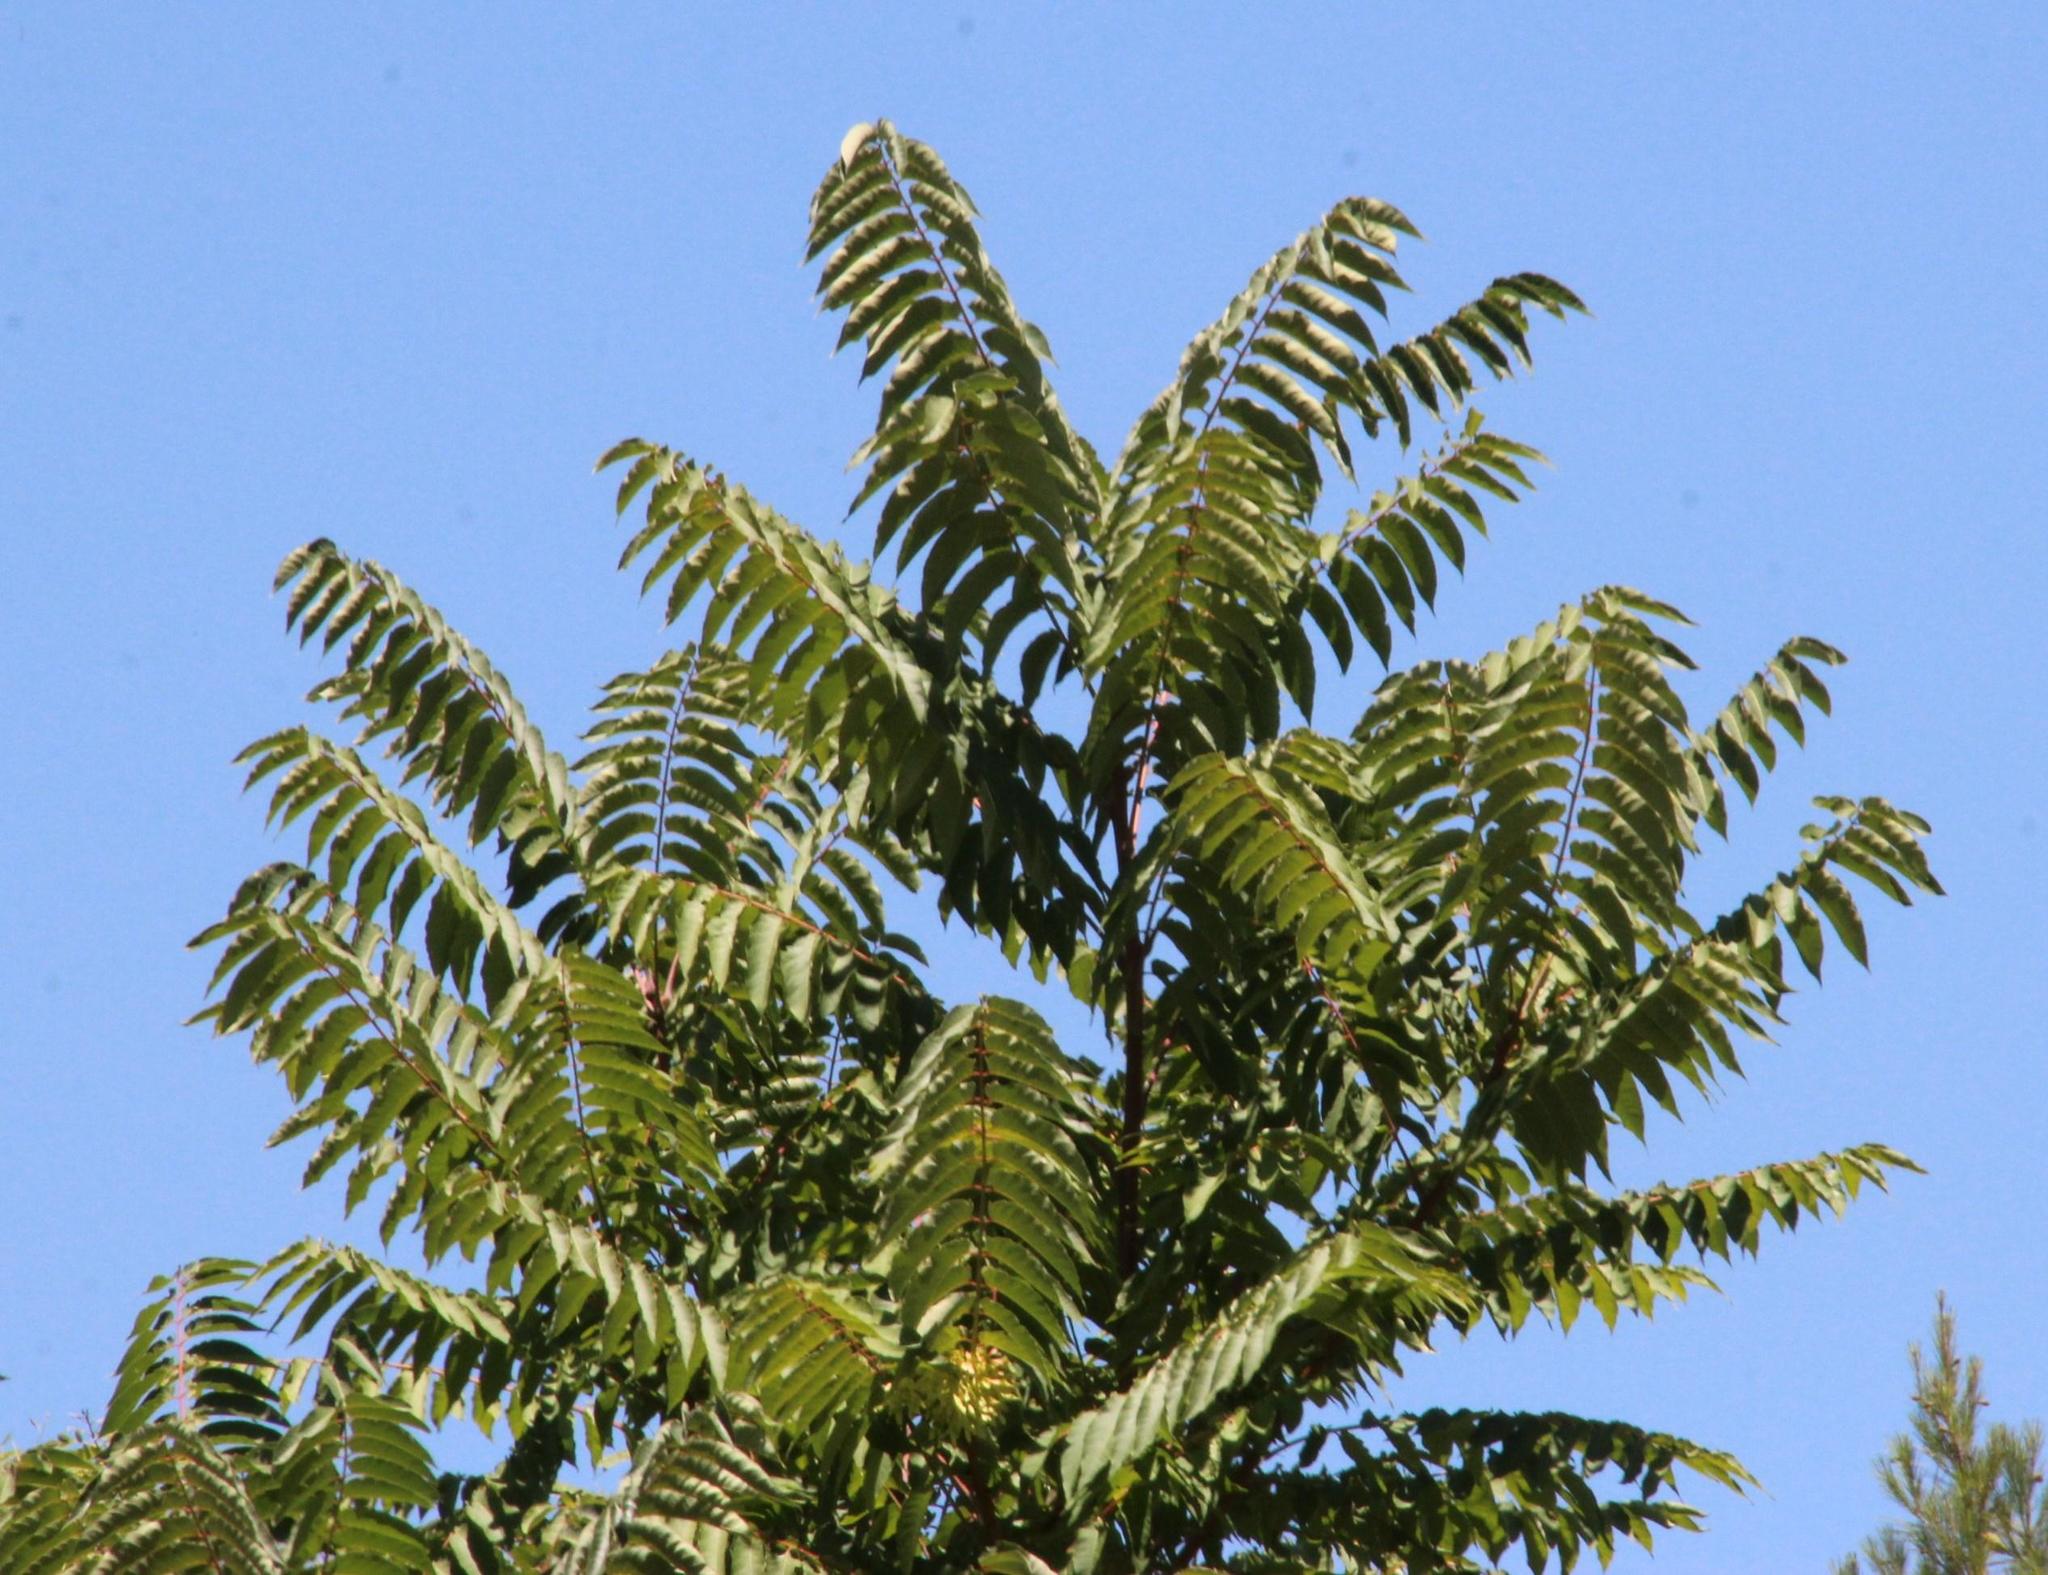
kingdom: Plantae
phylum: Tracheophyta
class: Magnoliopsida
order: Sapindales
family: Simaroubaceae
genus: Ailanthus
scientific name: Ailanthus altissima
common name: Tree-of-heaven
